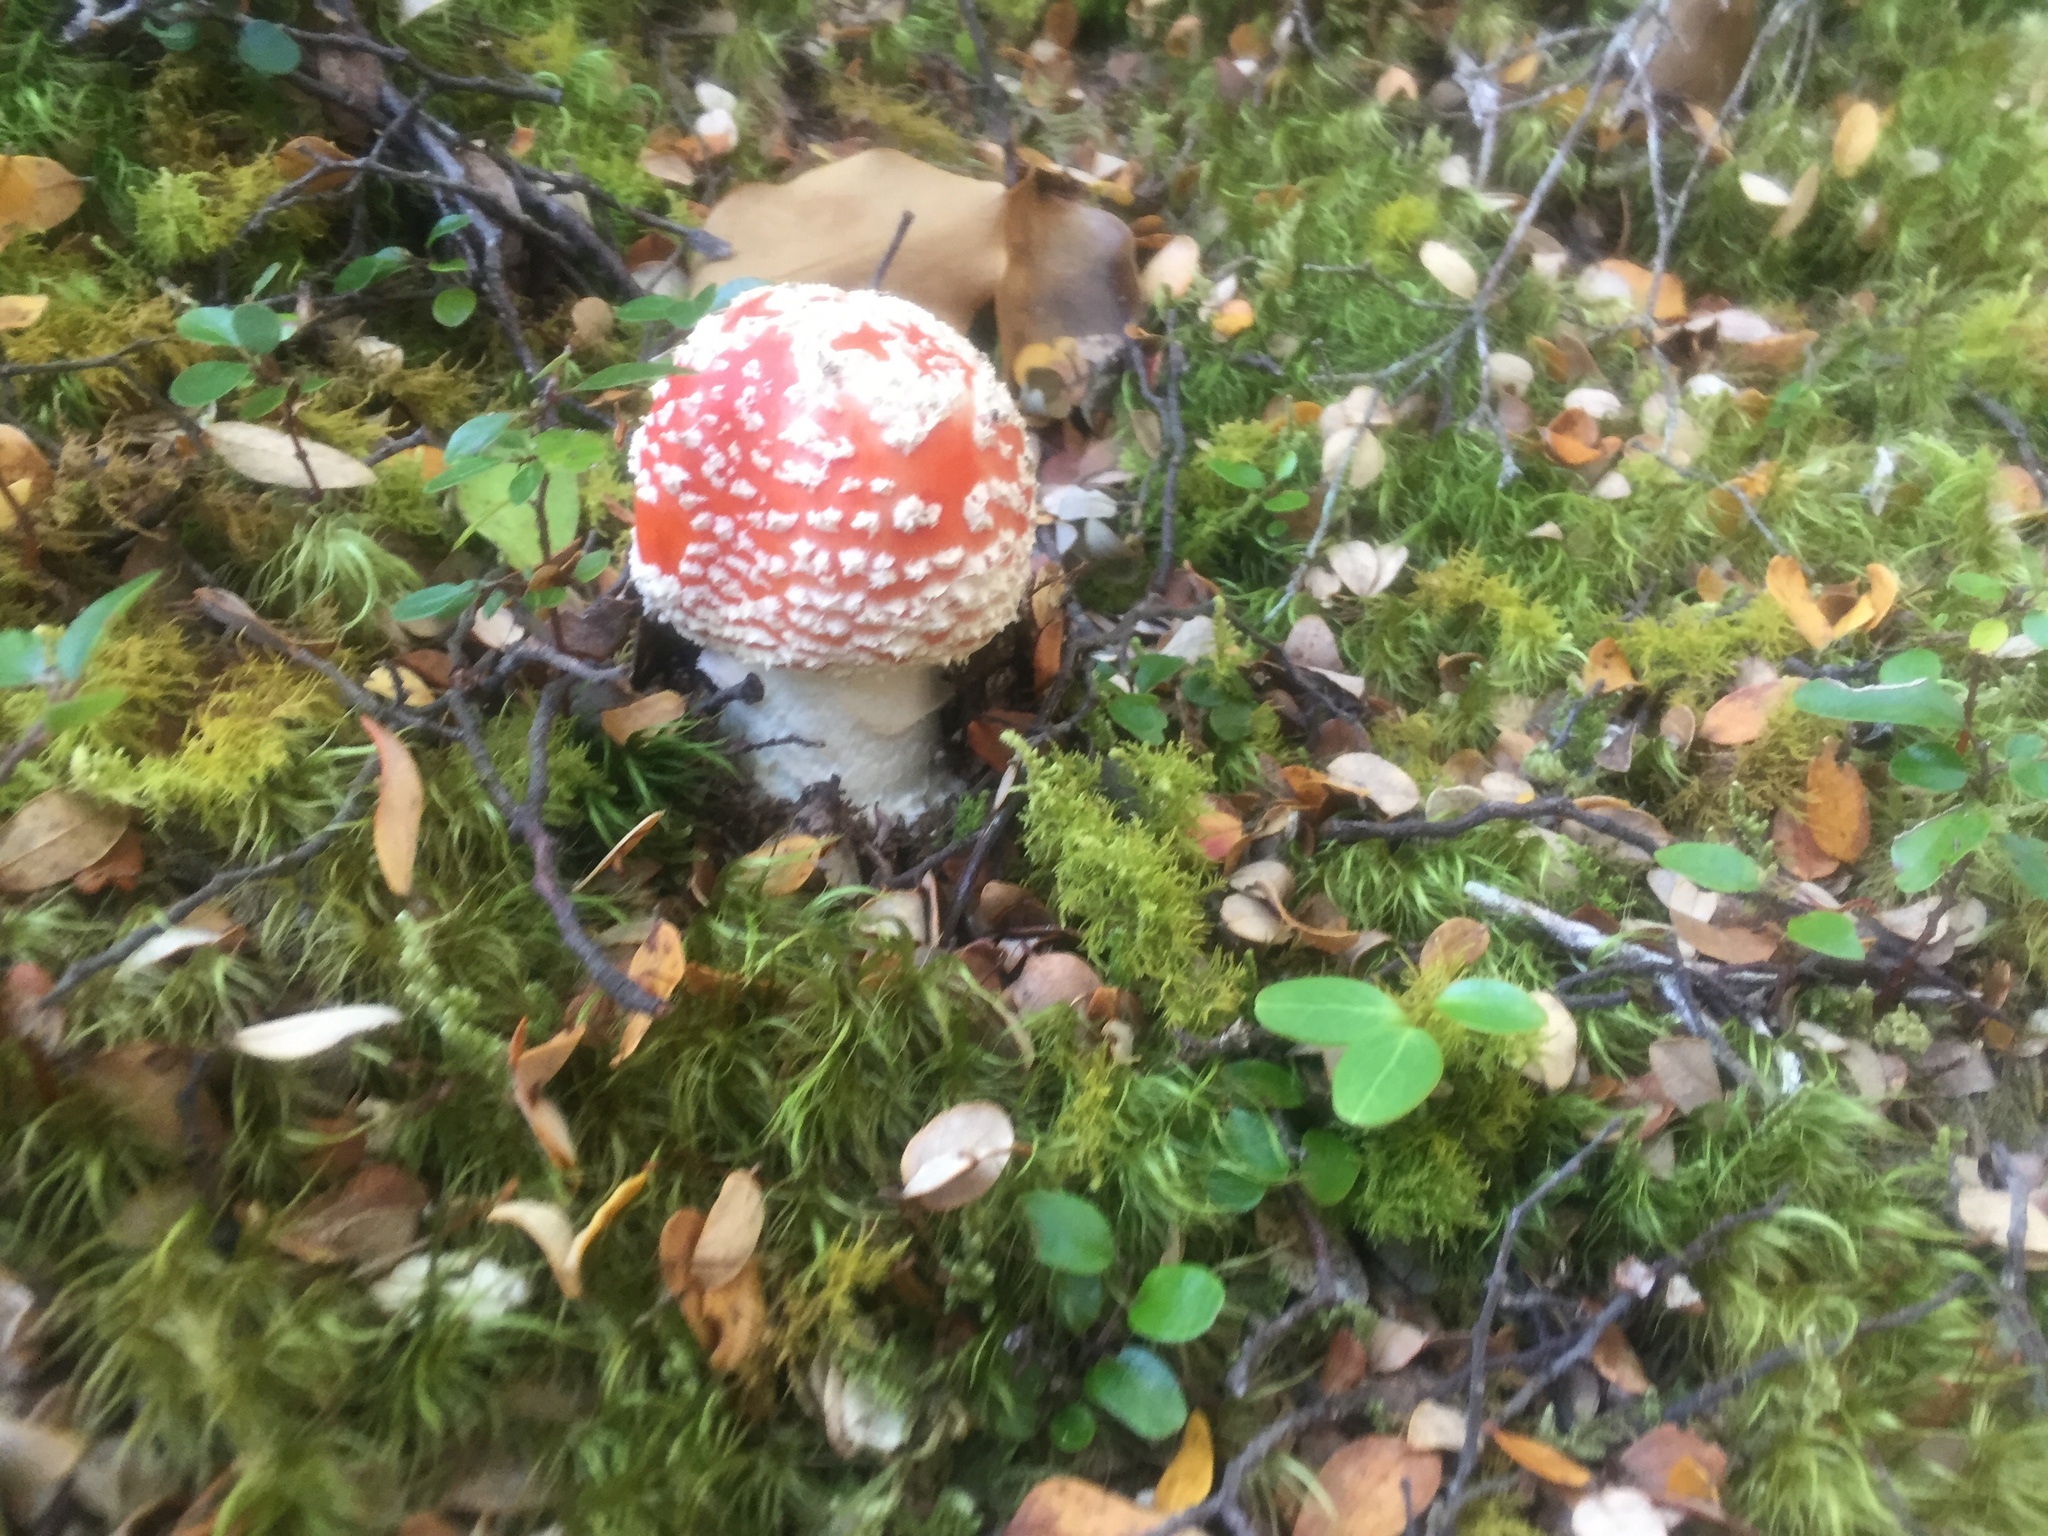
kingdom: Fungi
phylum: Basidiomycota
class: Agaricomycetes
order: Agaricales
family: Amanitaceae
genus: Amanita
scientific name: Amanita muscaria
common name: Fly agaric
